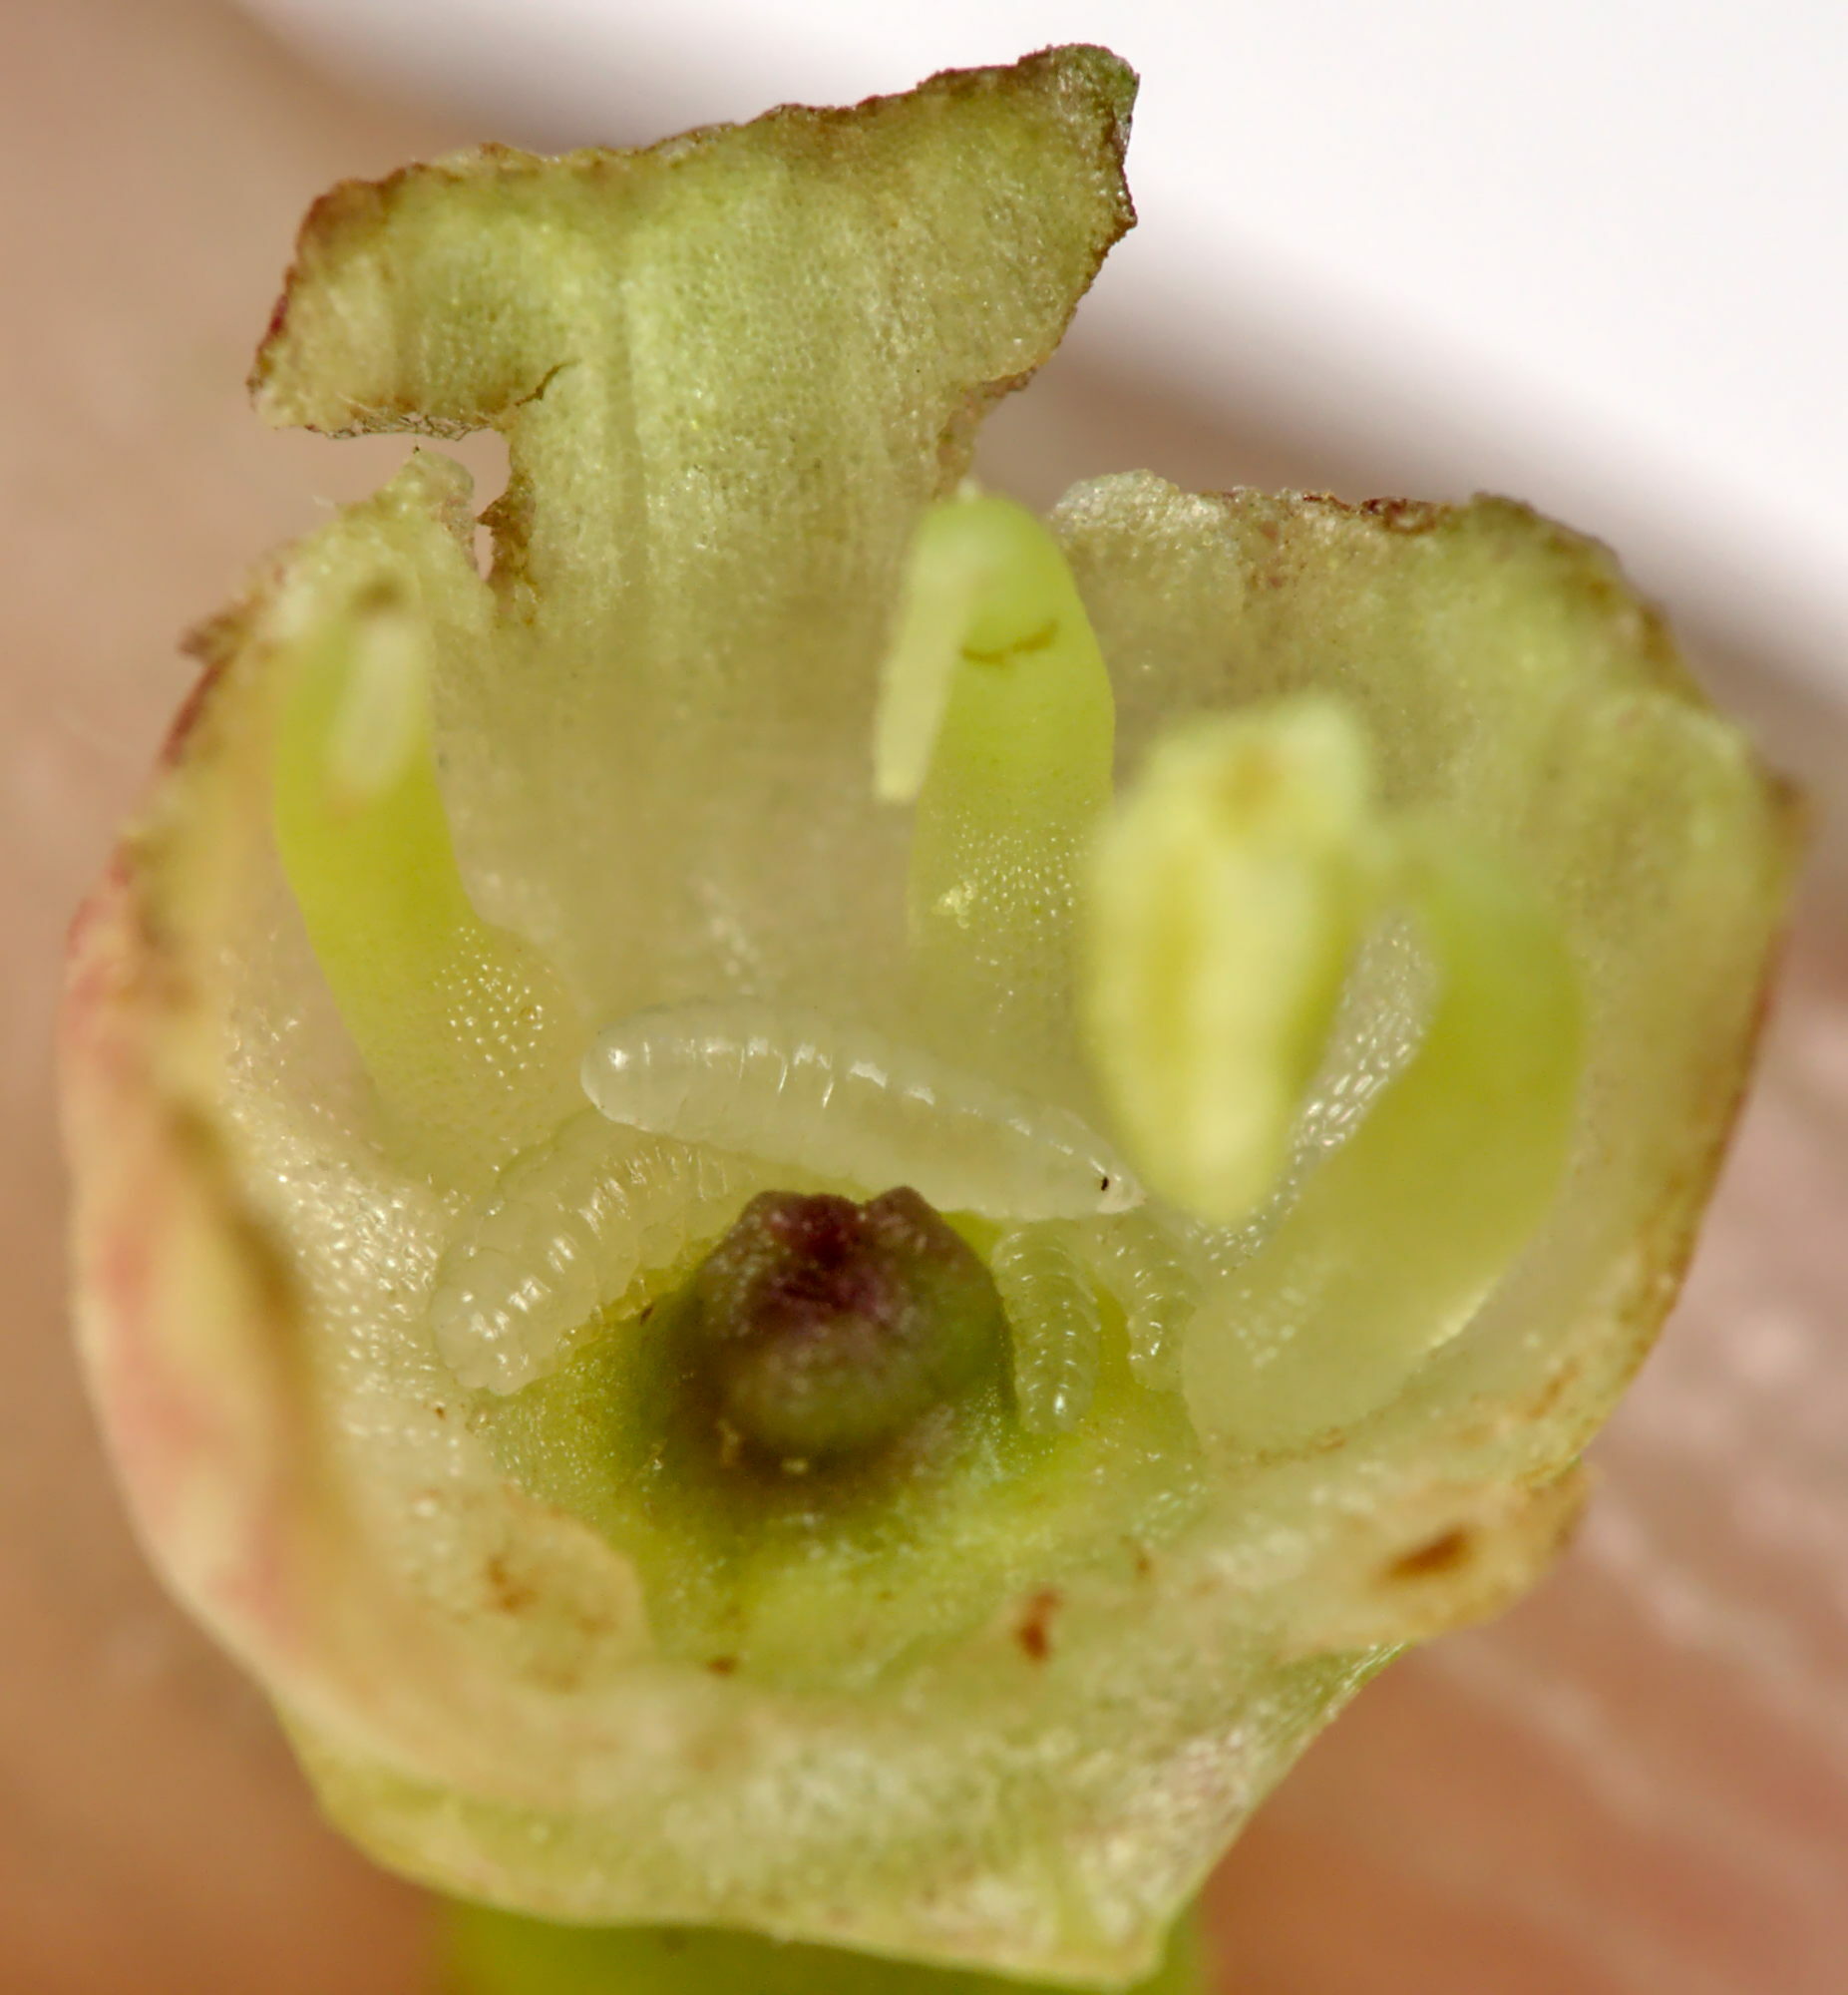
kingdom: Animalia
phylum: Arthropoda
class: Insecta
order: Diptera
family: Cecidomyiidae
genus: Contarinia
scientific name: Contarinia viburnorum
